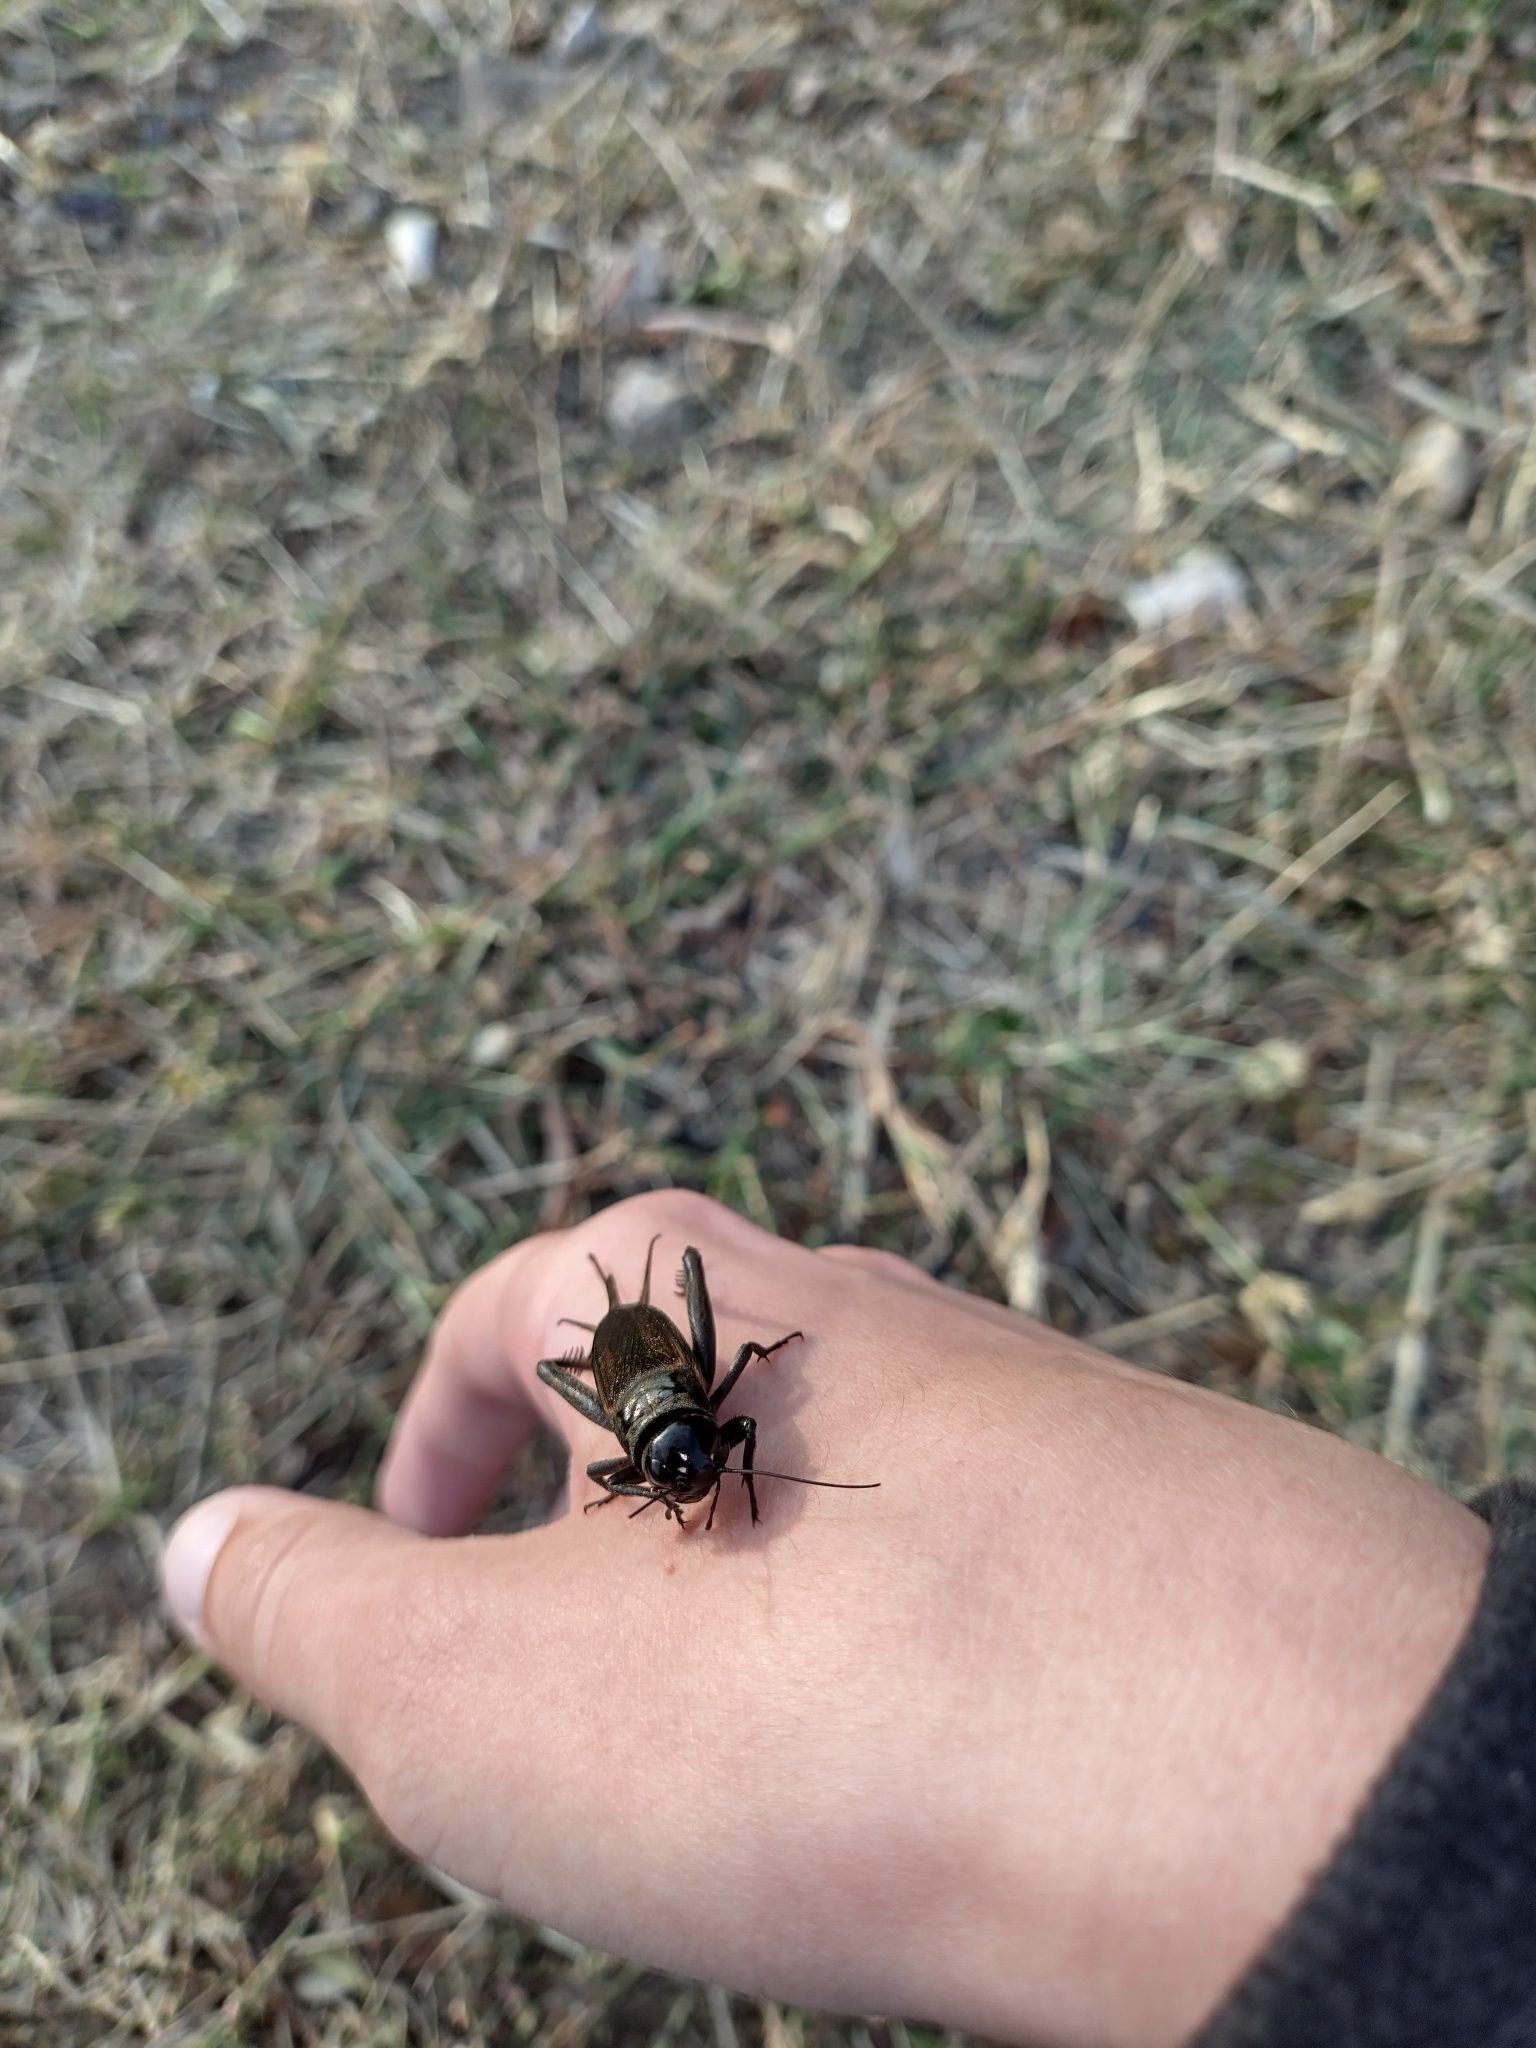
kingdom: Animalia
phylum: Arthropoda
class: Insecta
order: Orthoptera
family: Gryllidae
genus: Teleogryllus
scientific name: Teleogryllus commodus
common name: Black field cricket
